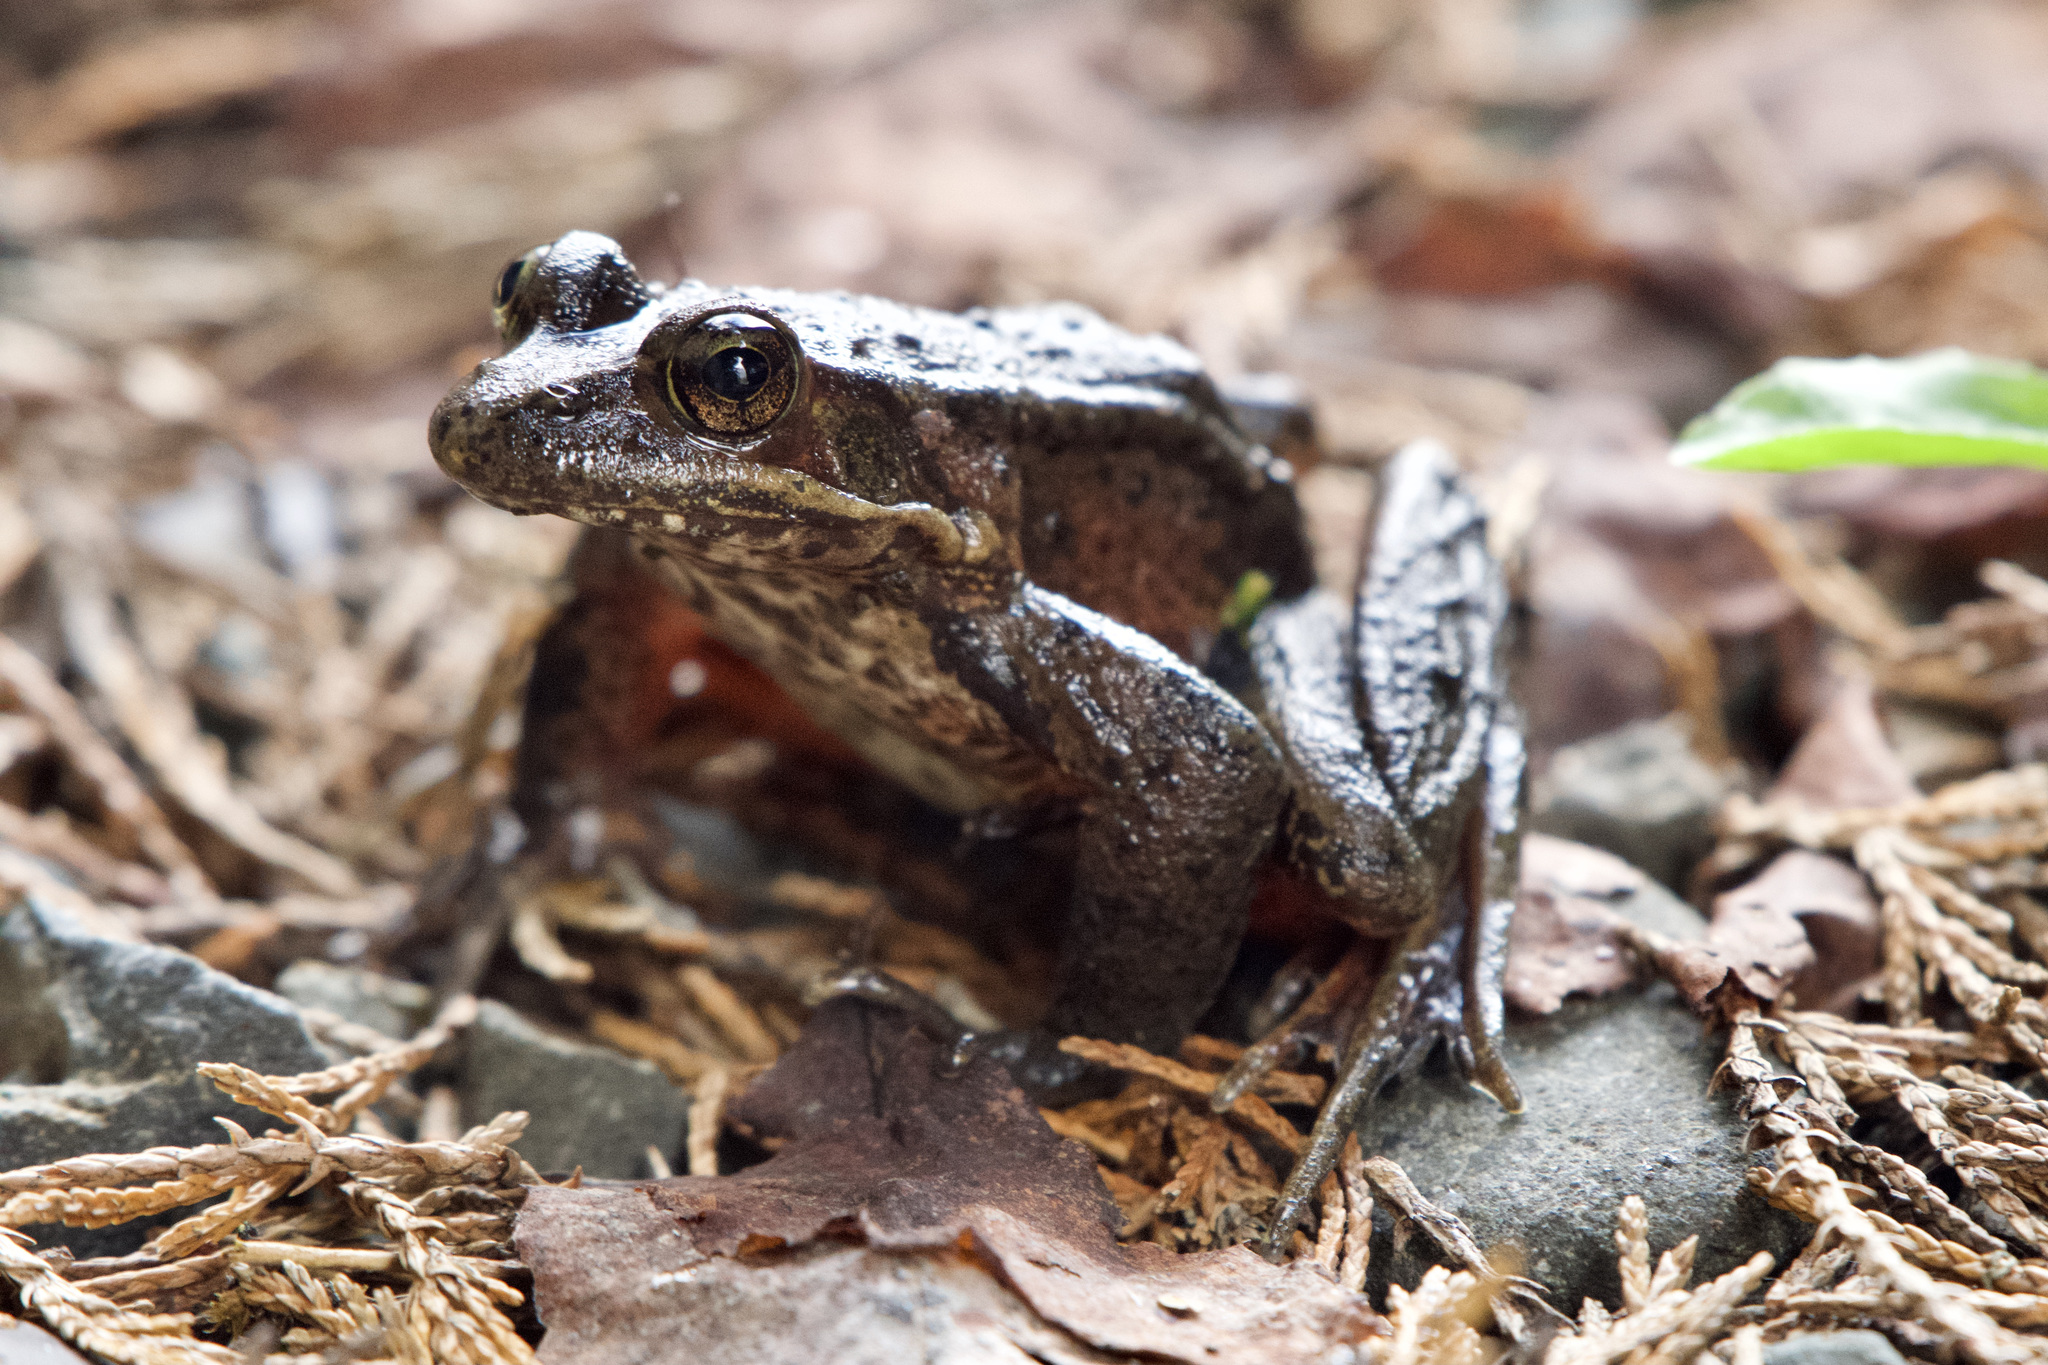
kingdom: Animalia
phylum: Chordata
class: Amphibia
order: Anura
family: Ranidae
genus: Rana
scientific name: Rana aurora
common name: Red-legged frog
